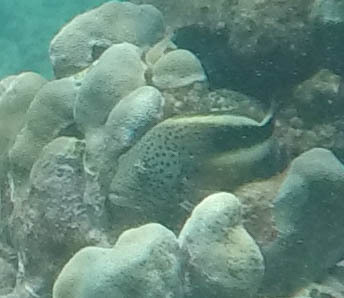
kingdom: Animalia
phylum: Chordata
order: Perciformes
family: Cirrhitidae
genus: Paracirrhites
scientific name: Paracirrhites forsteri
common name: Freckled hawkfish
